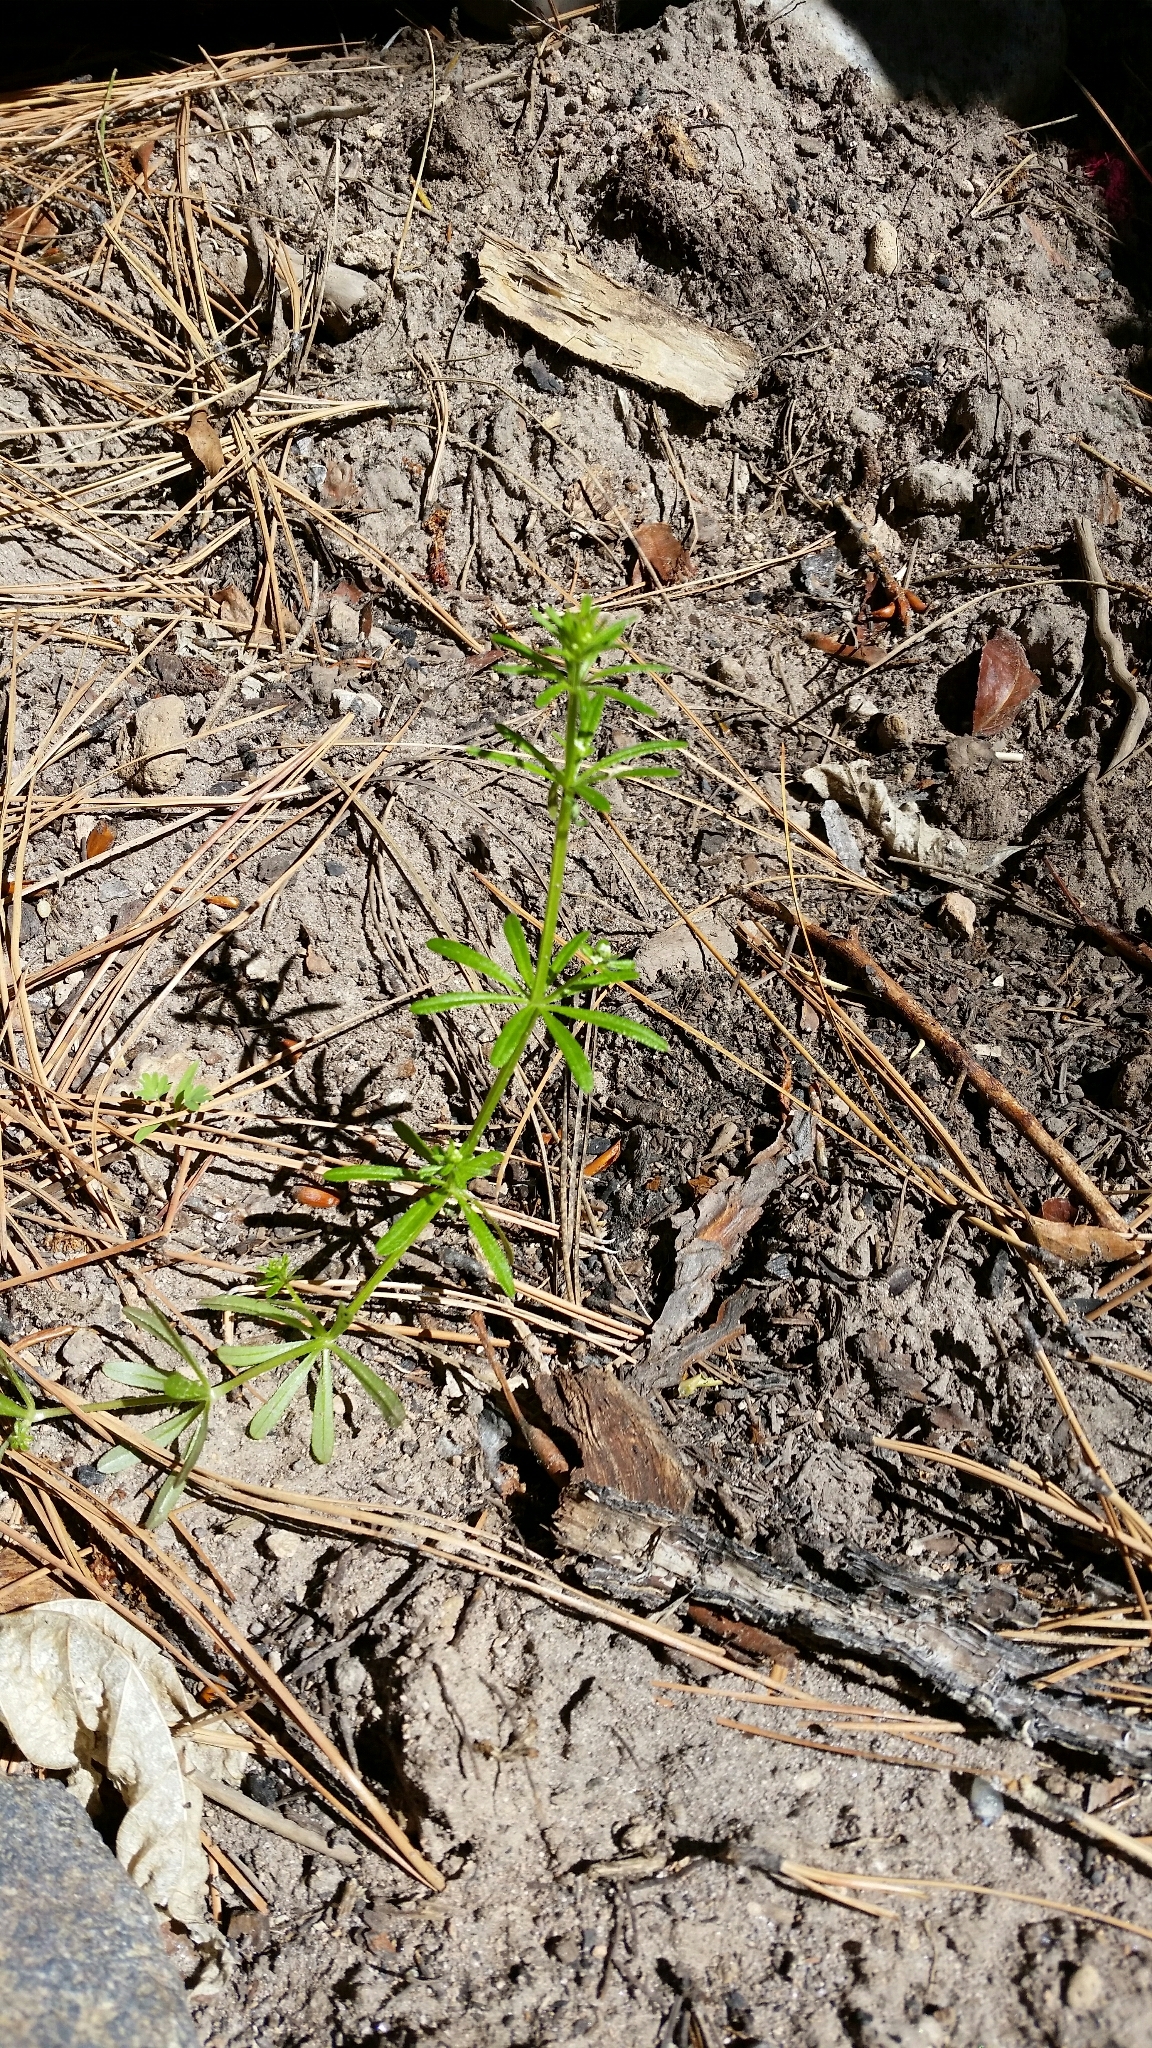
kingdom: Plantae
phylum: Tracheophyta
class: Magnoliopsida
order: Gentianales
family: Rubiaceae
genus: Galium
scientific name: Galium aparine
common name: Cleavers
